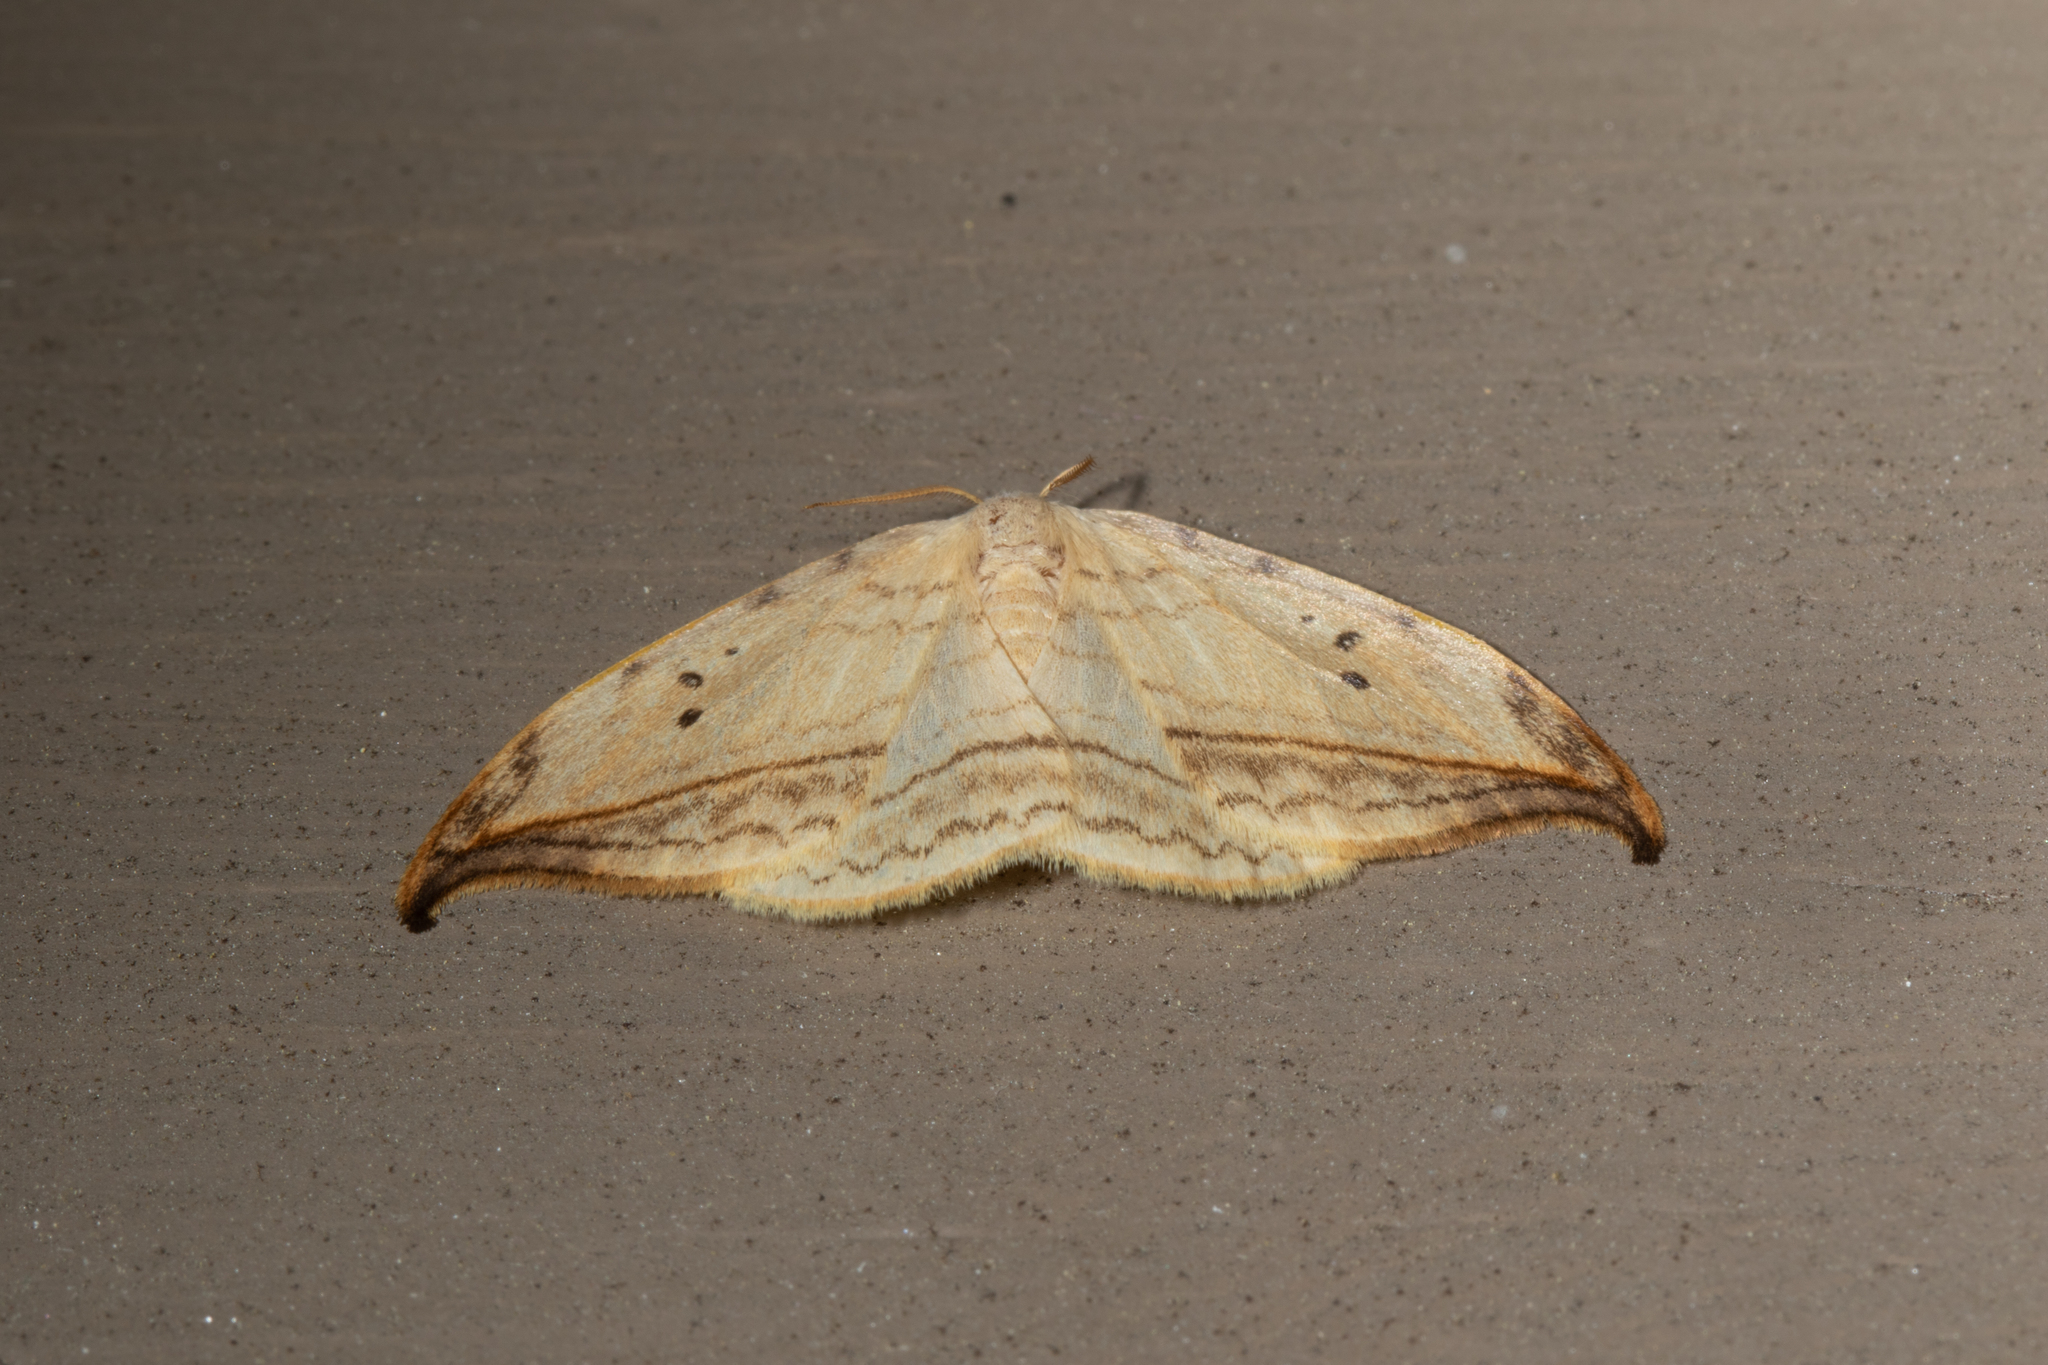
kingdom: Animalia
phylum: Arthropoda
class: Insecta
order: Lepidoptera
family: Drepanidae
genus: Drepana
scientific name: Drepana arcuata
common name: Arched hooktip moth
